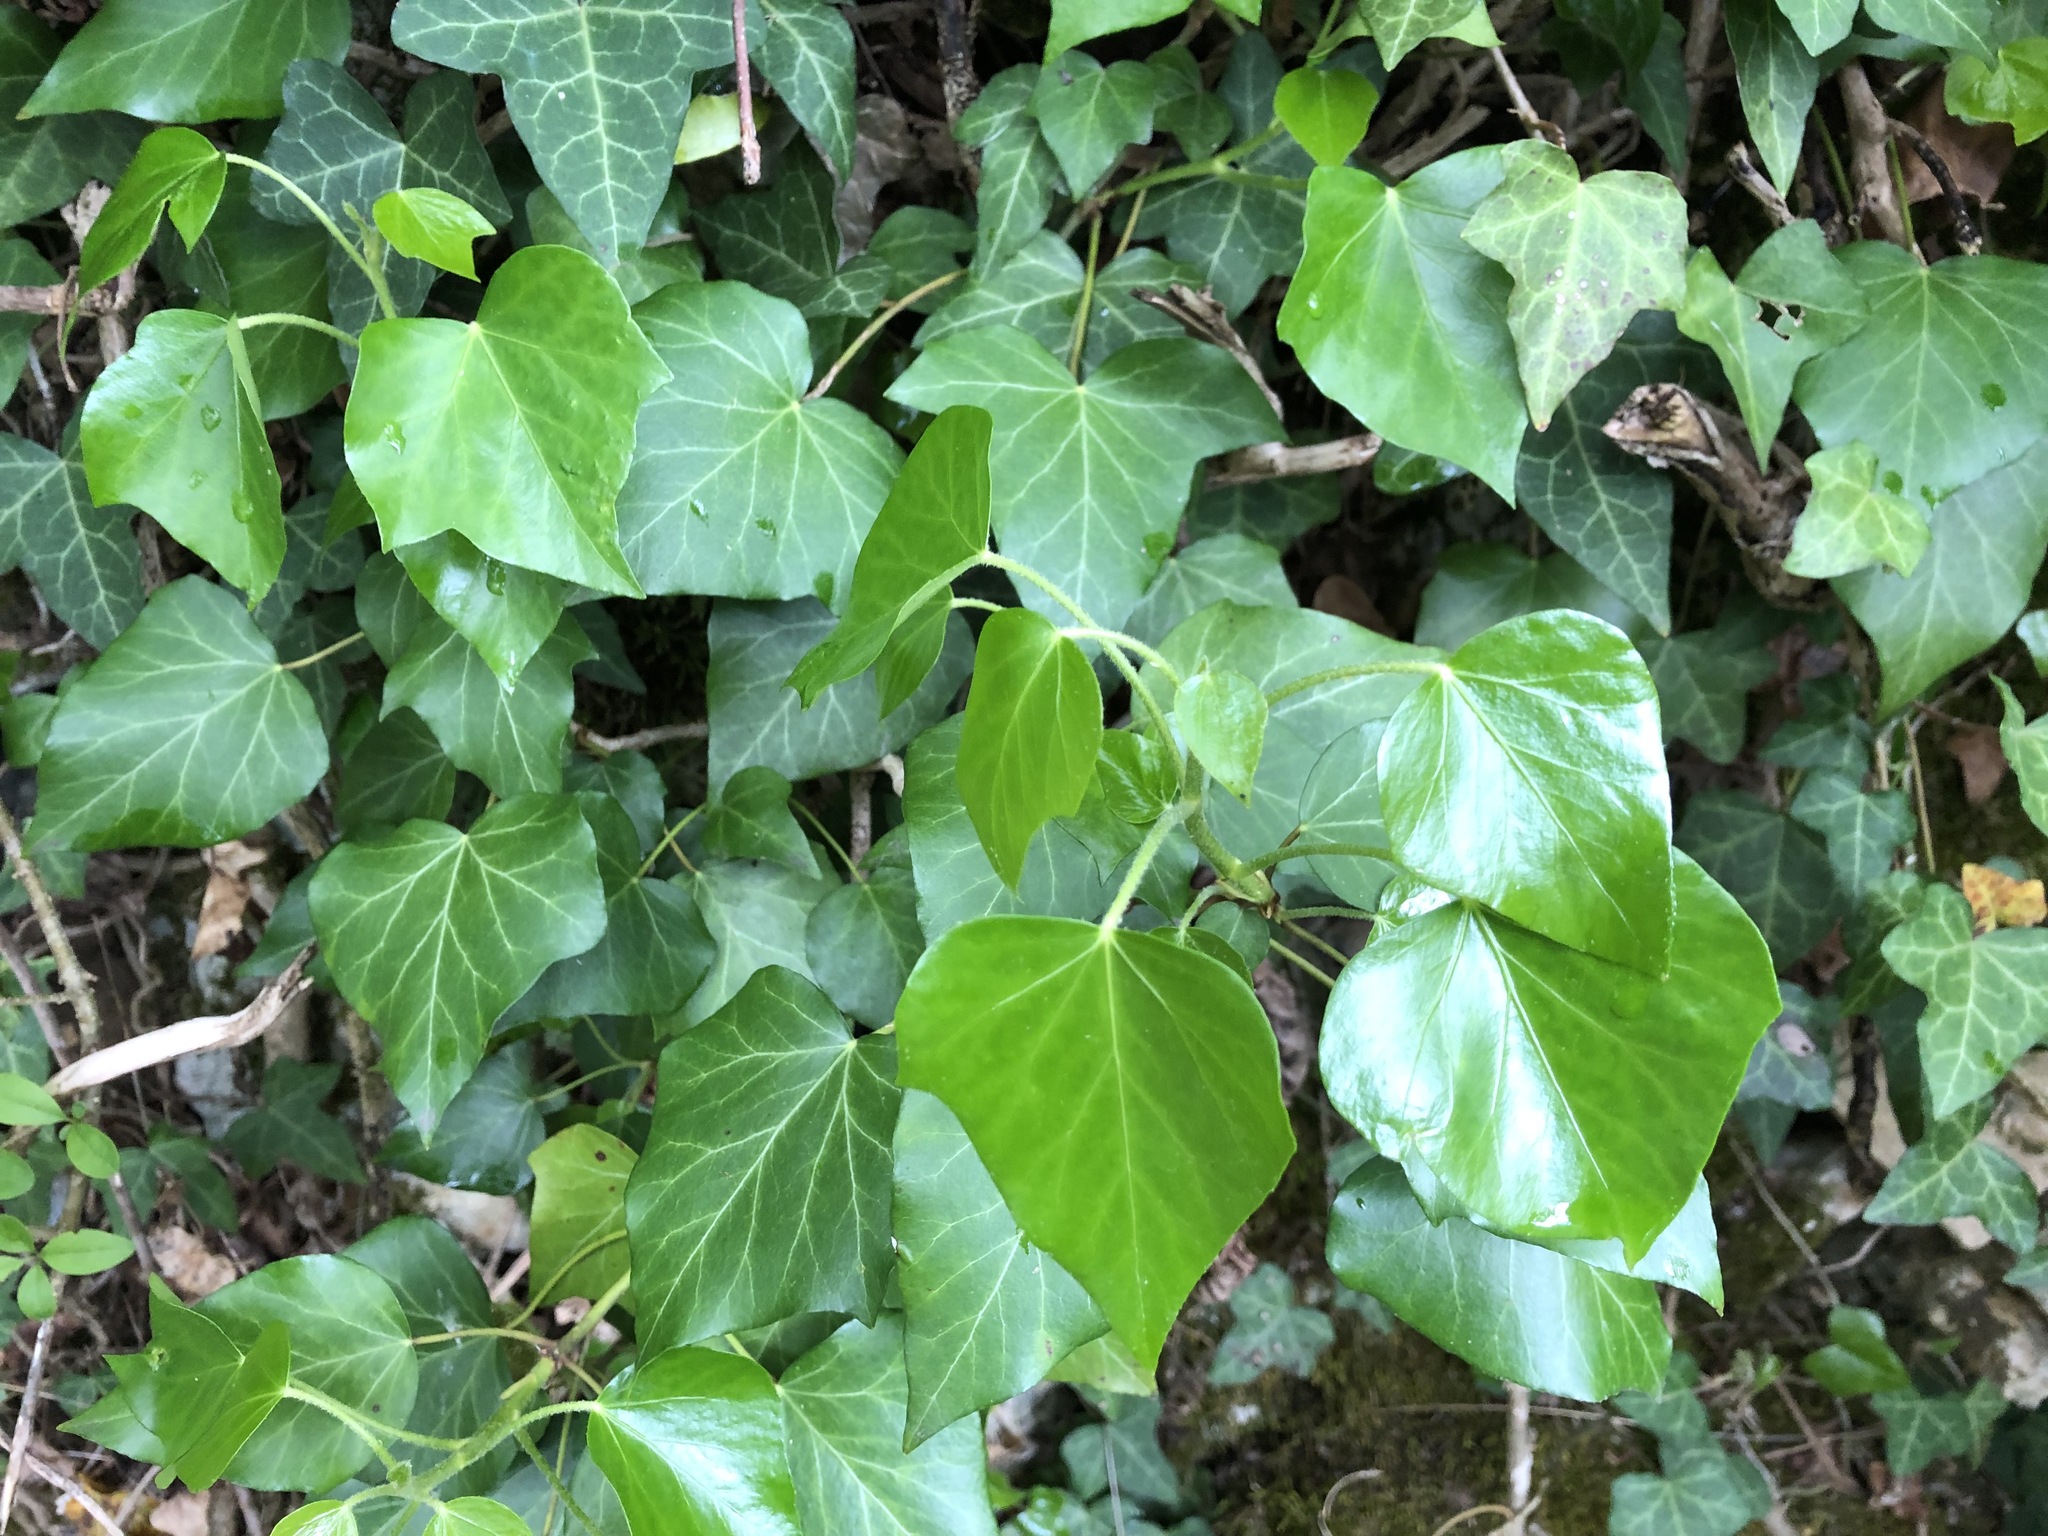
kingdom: Plantae
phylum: Tracheophyta
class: Magnoliopsida
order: Apiales
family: Araliaceae
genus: Hedera
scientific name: Hedera helix
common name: Ivy
